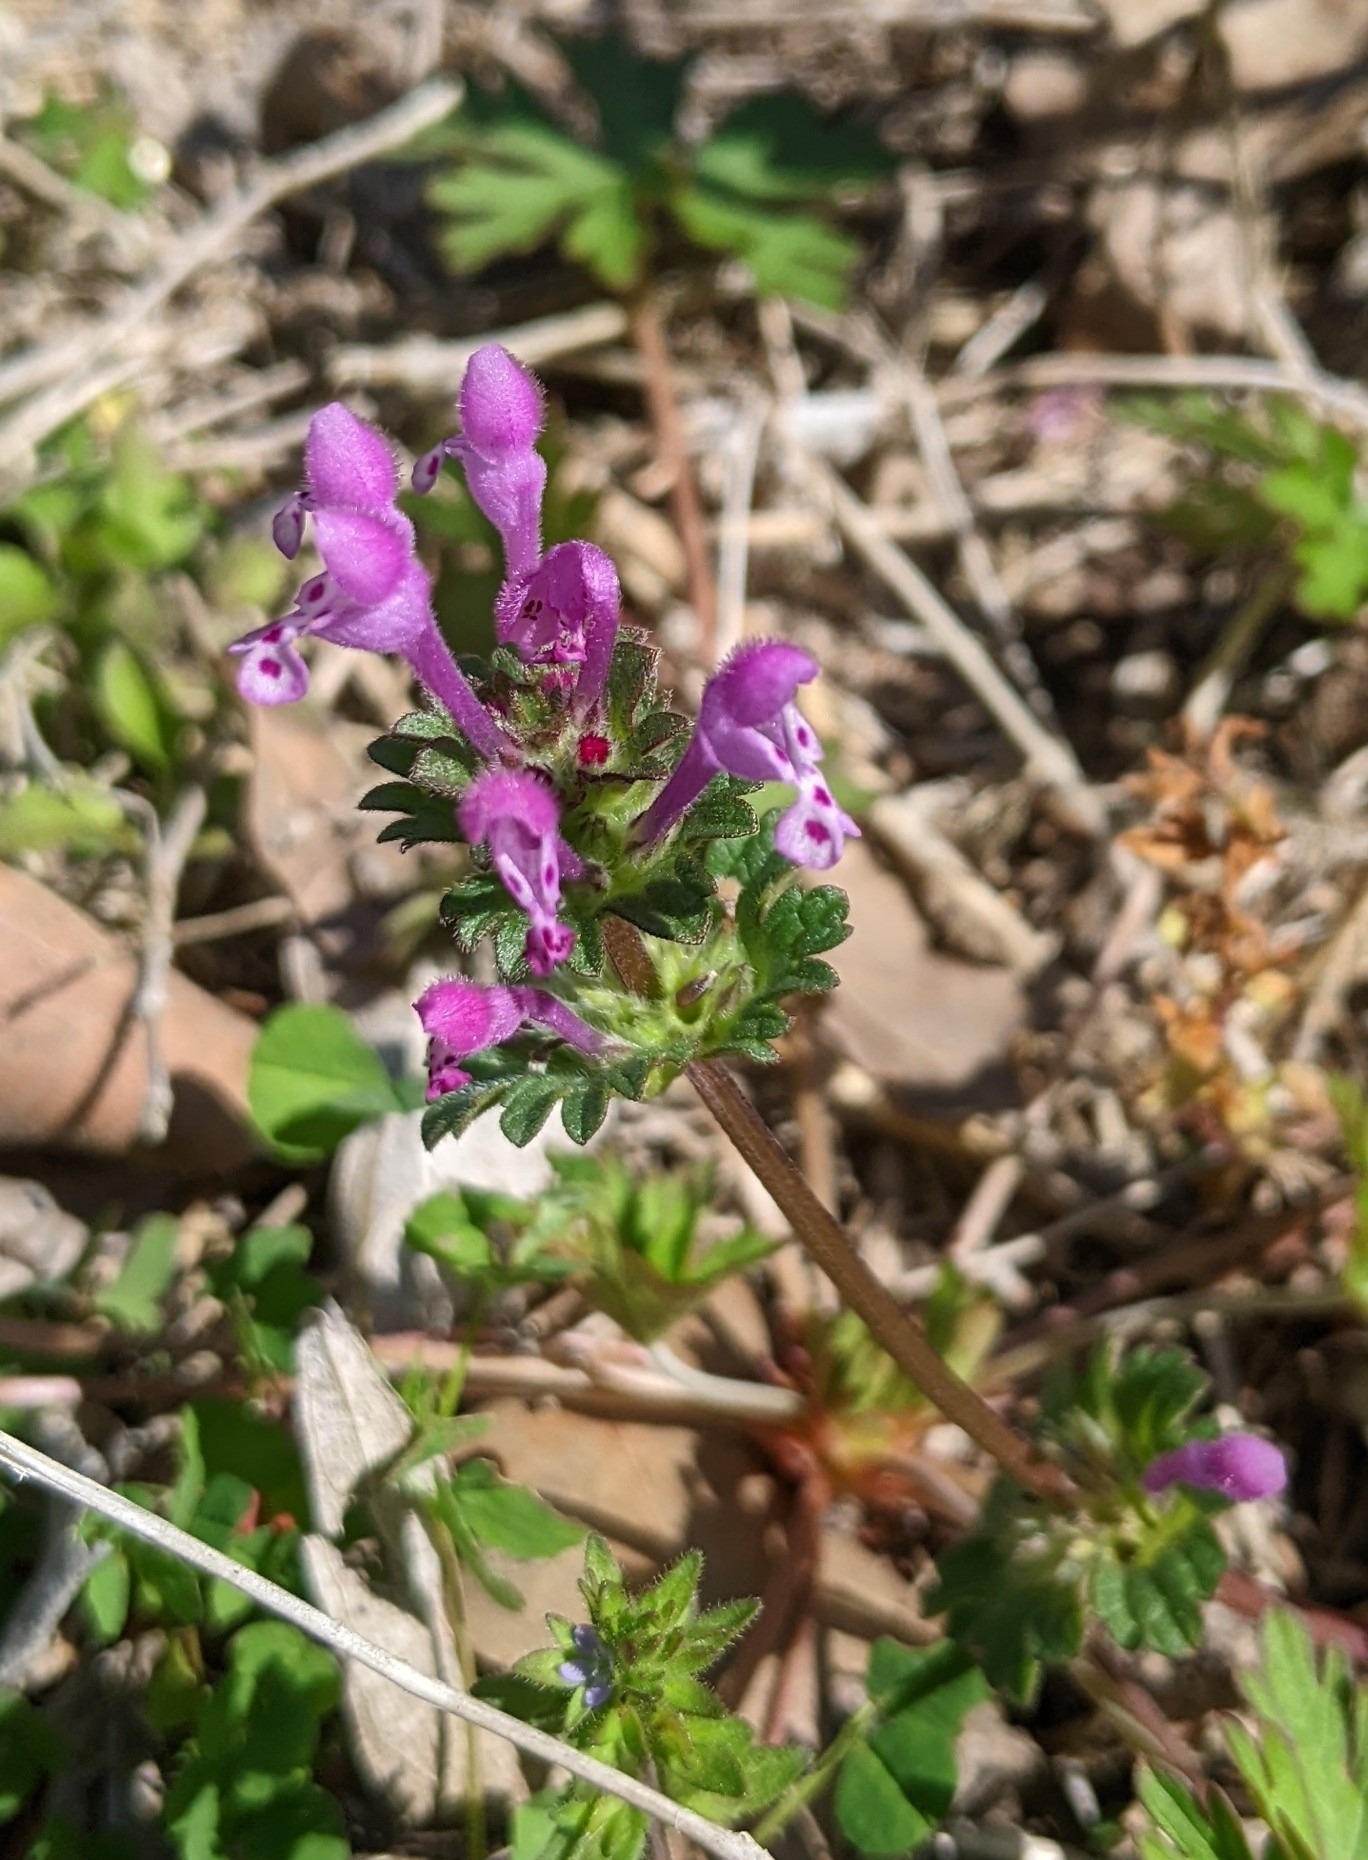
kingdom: Plantae
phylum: Tracheophyta
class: Magnoliopsida
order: Lamiales
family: Lamiaceae
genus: Lamium
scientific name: Lamium amplexicaule
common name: Henbit dead-nettle
